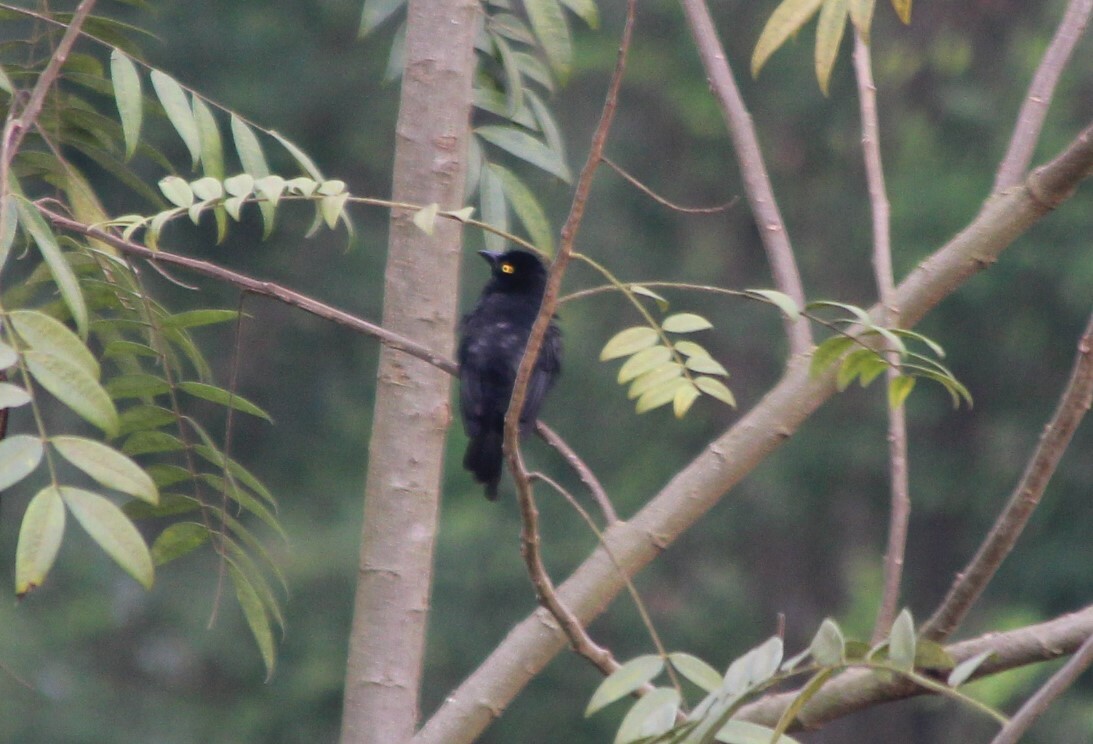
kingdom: Animalia
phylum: Chordata
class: Aves
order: Passeriformes
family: Ploceidae
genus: Ploceus
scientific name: Ploceus nigerrimus
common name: Vieillot's black weaver
